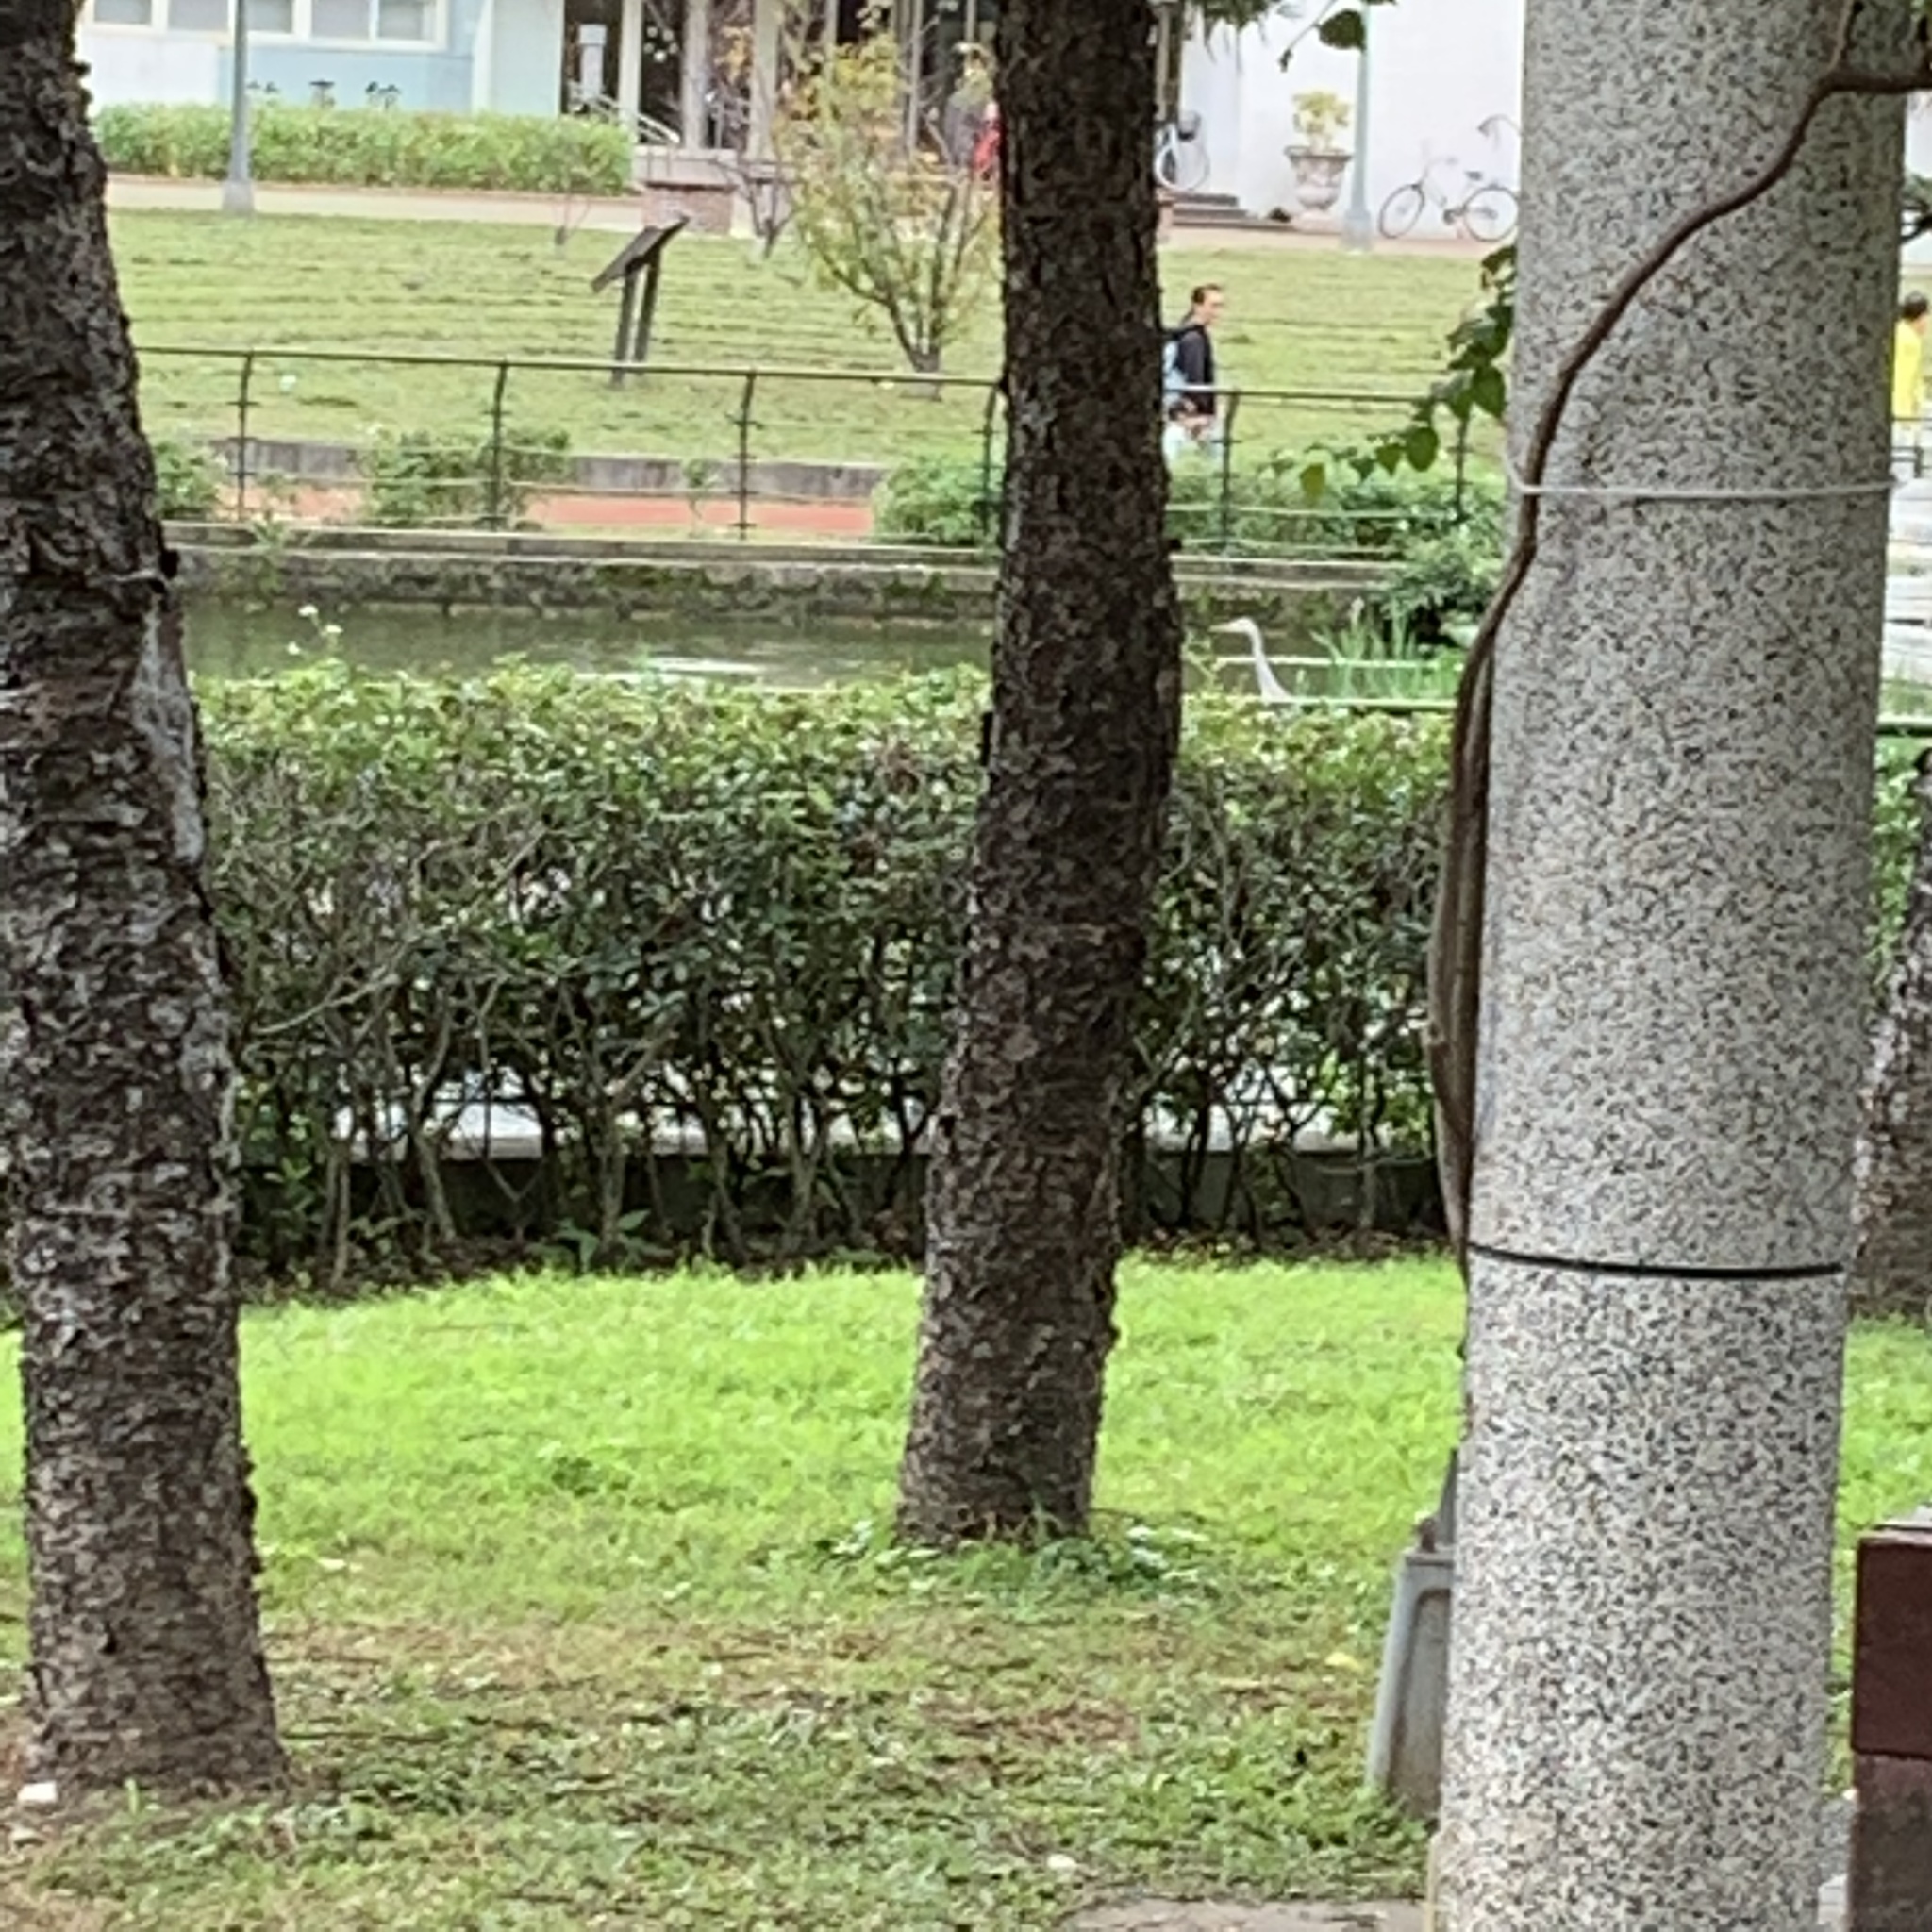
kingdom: Animalia
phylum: Chordata
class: Aves
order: Pelecaniformes
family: Ardeidae
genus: Ardea
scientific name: Ardea cinerea
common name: Grey heron
